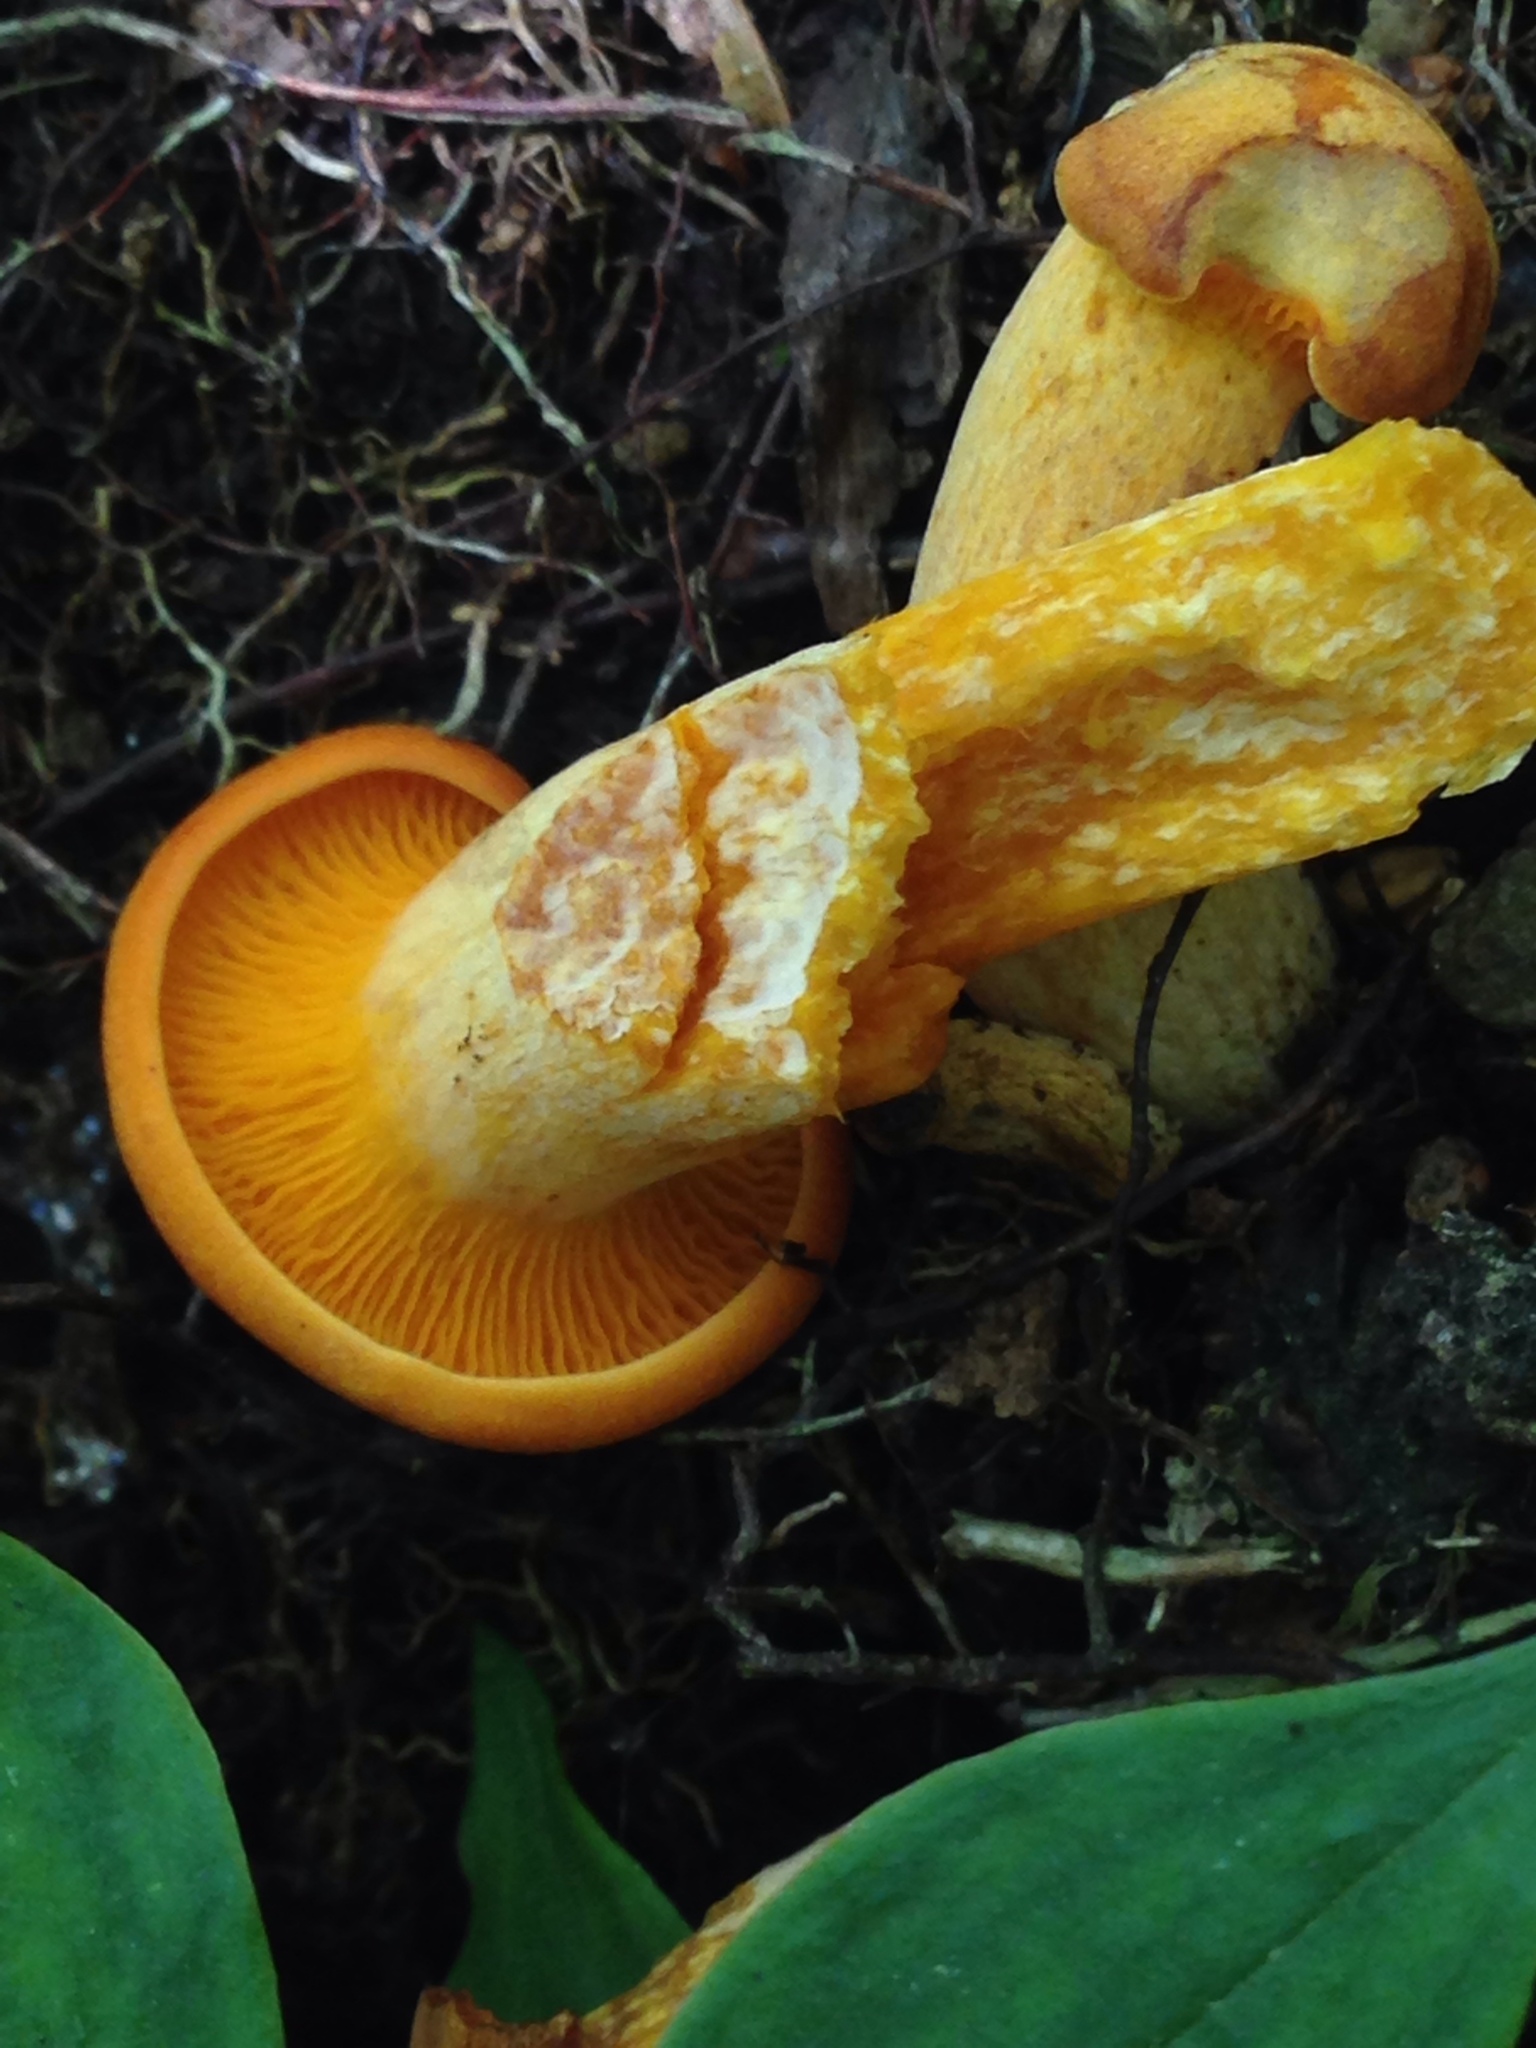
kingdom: Fungi
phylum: Basidiomycota
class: Agaricomycetes
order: Agaricales
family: Omphalotaceae
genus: Omphalotus
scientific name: Omphalotus illudens
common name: Jack o lantern
